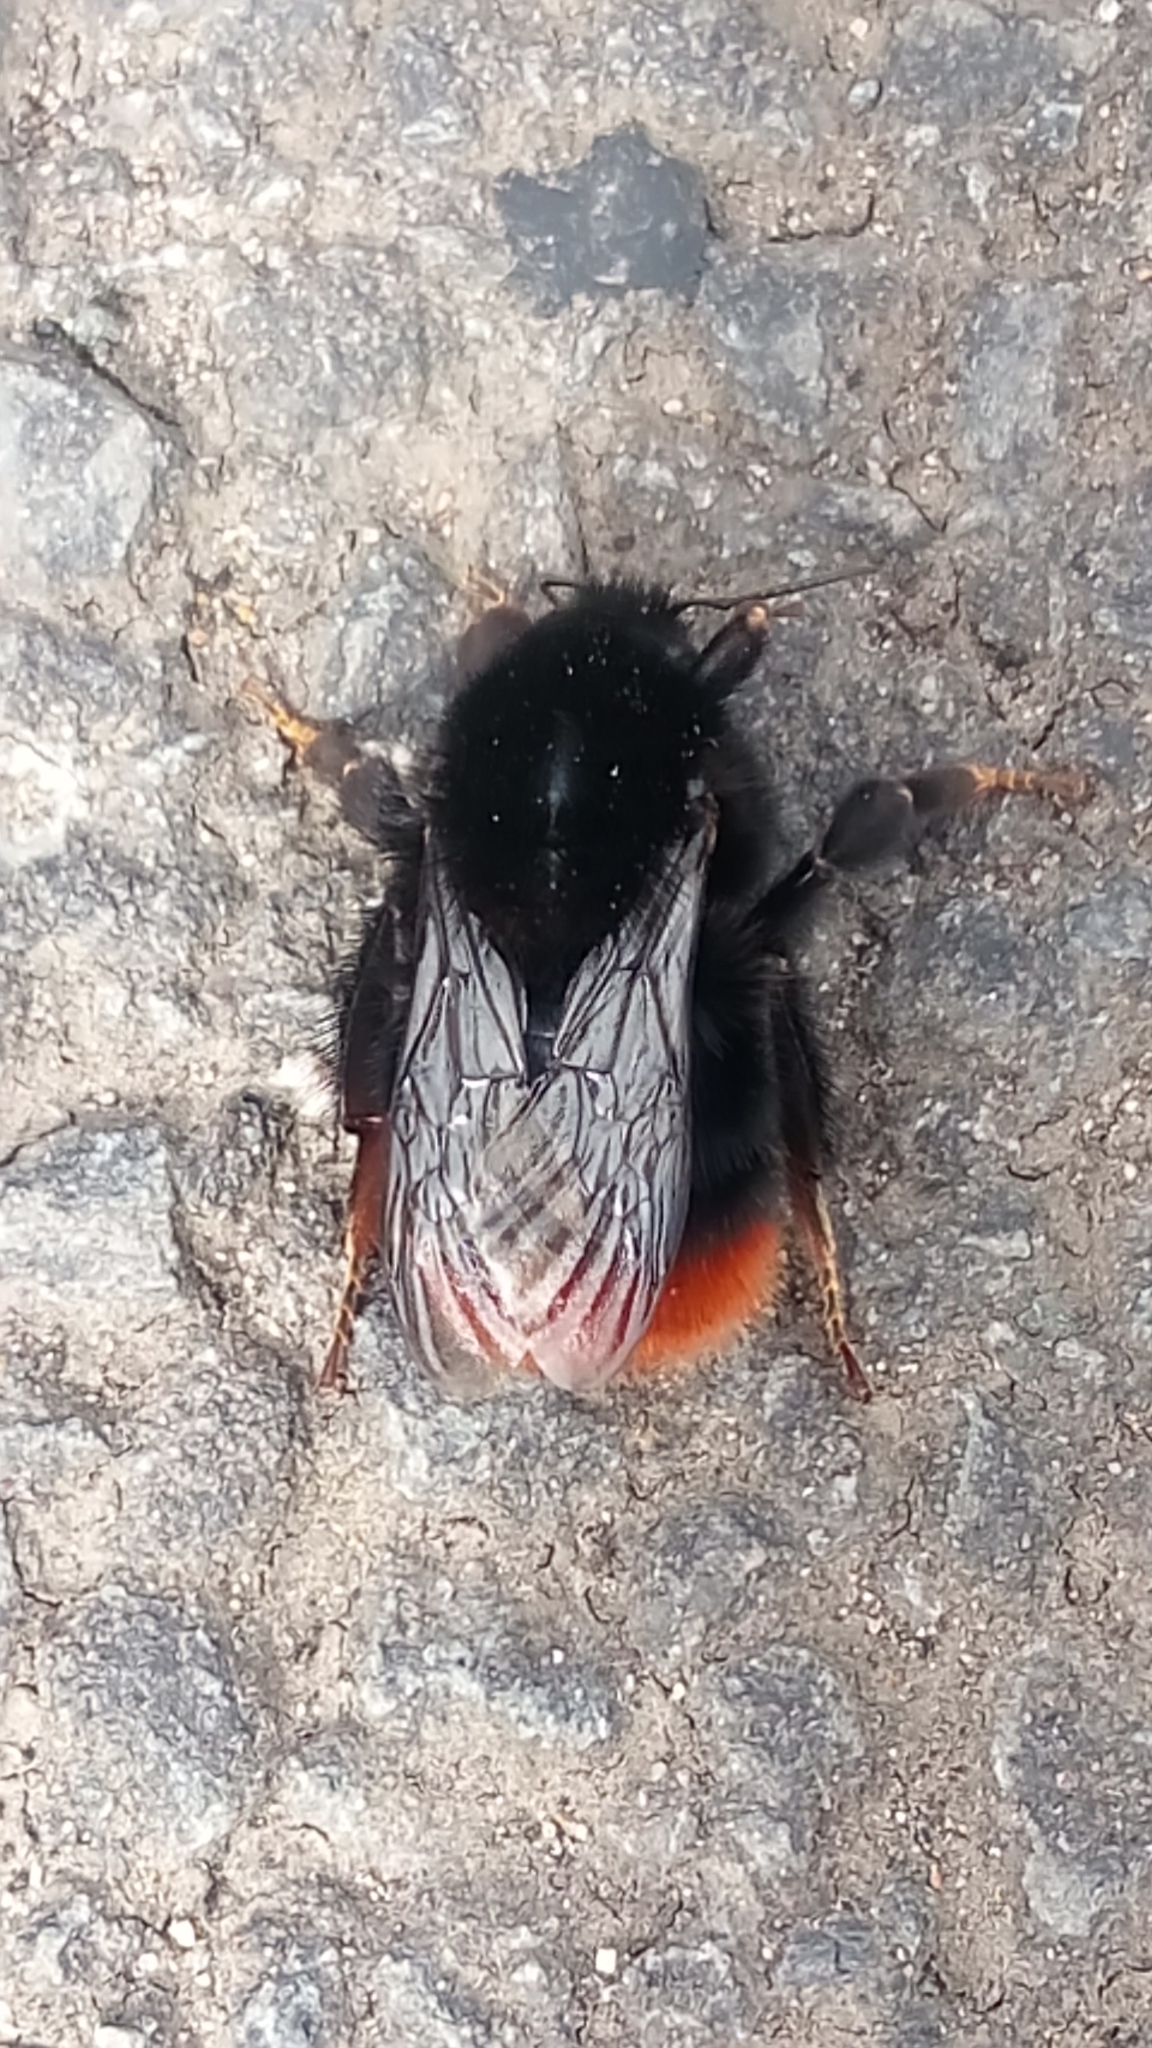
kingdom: Animalia
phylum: Arthropoda
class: Insecta
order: Hymenoptera
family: Apidae
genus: Bombus
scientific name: Bombus lapidarius
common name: Large red-tailed humble-bee
